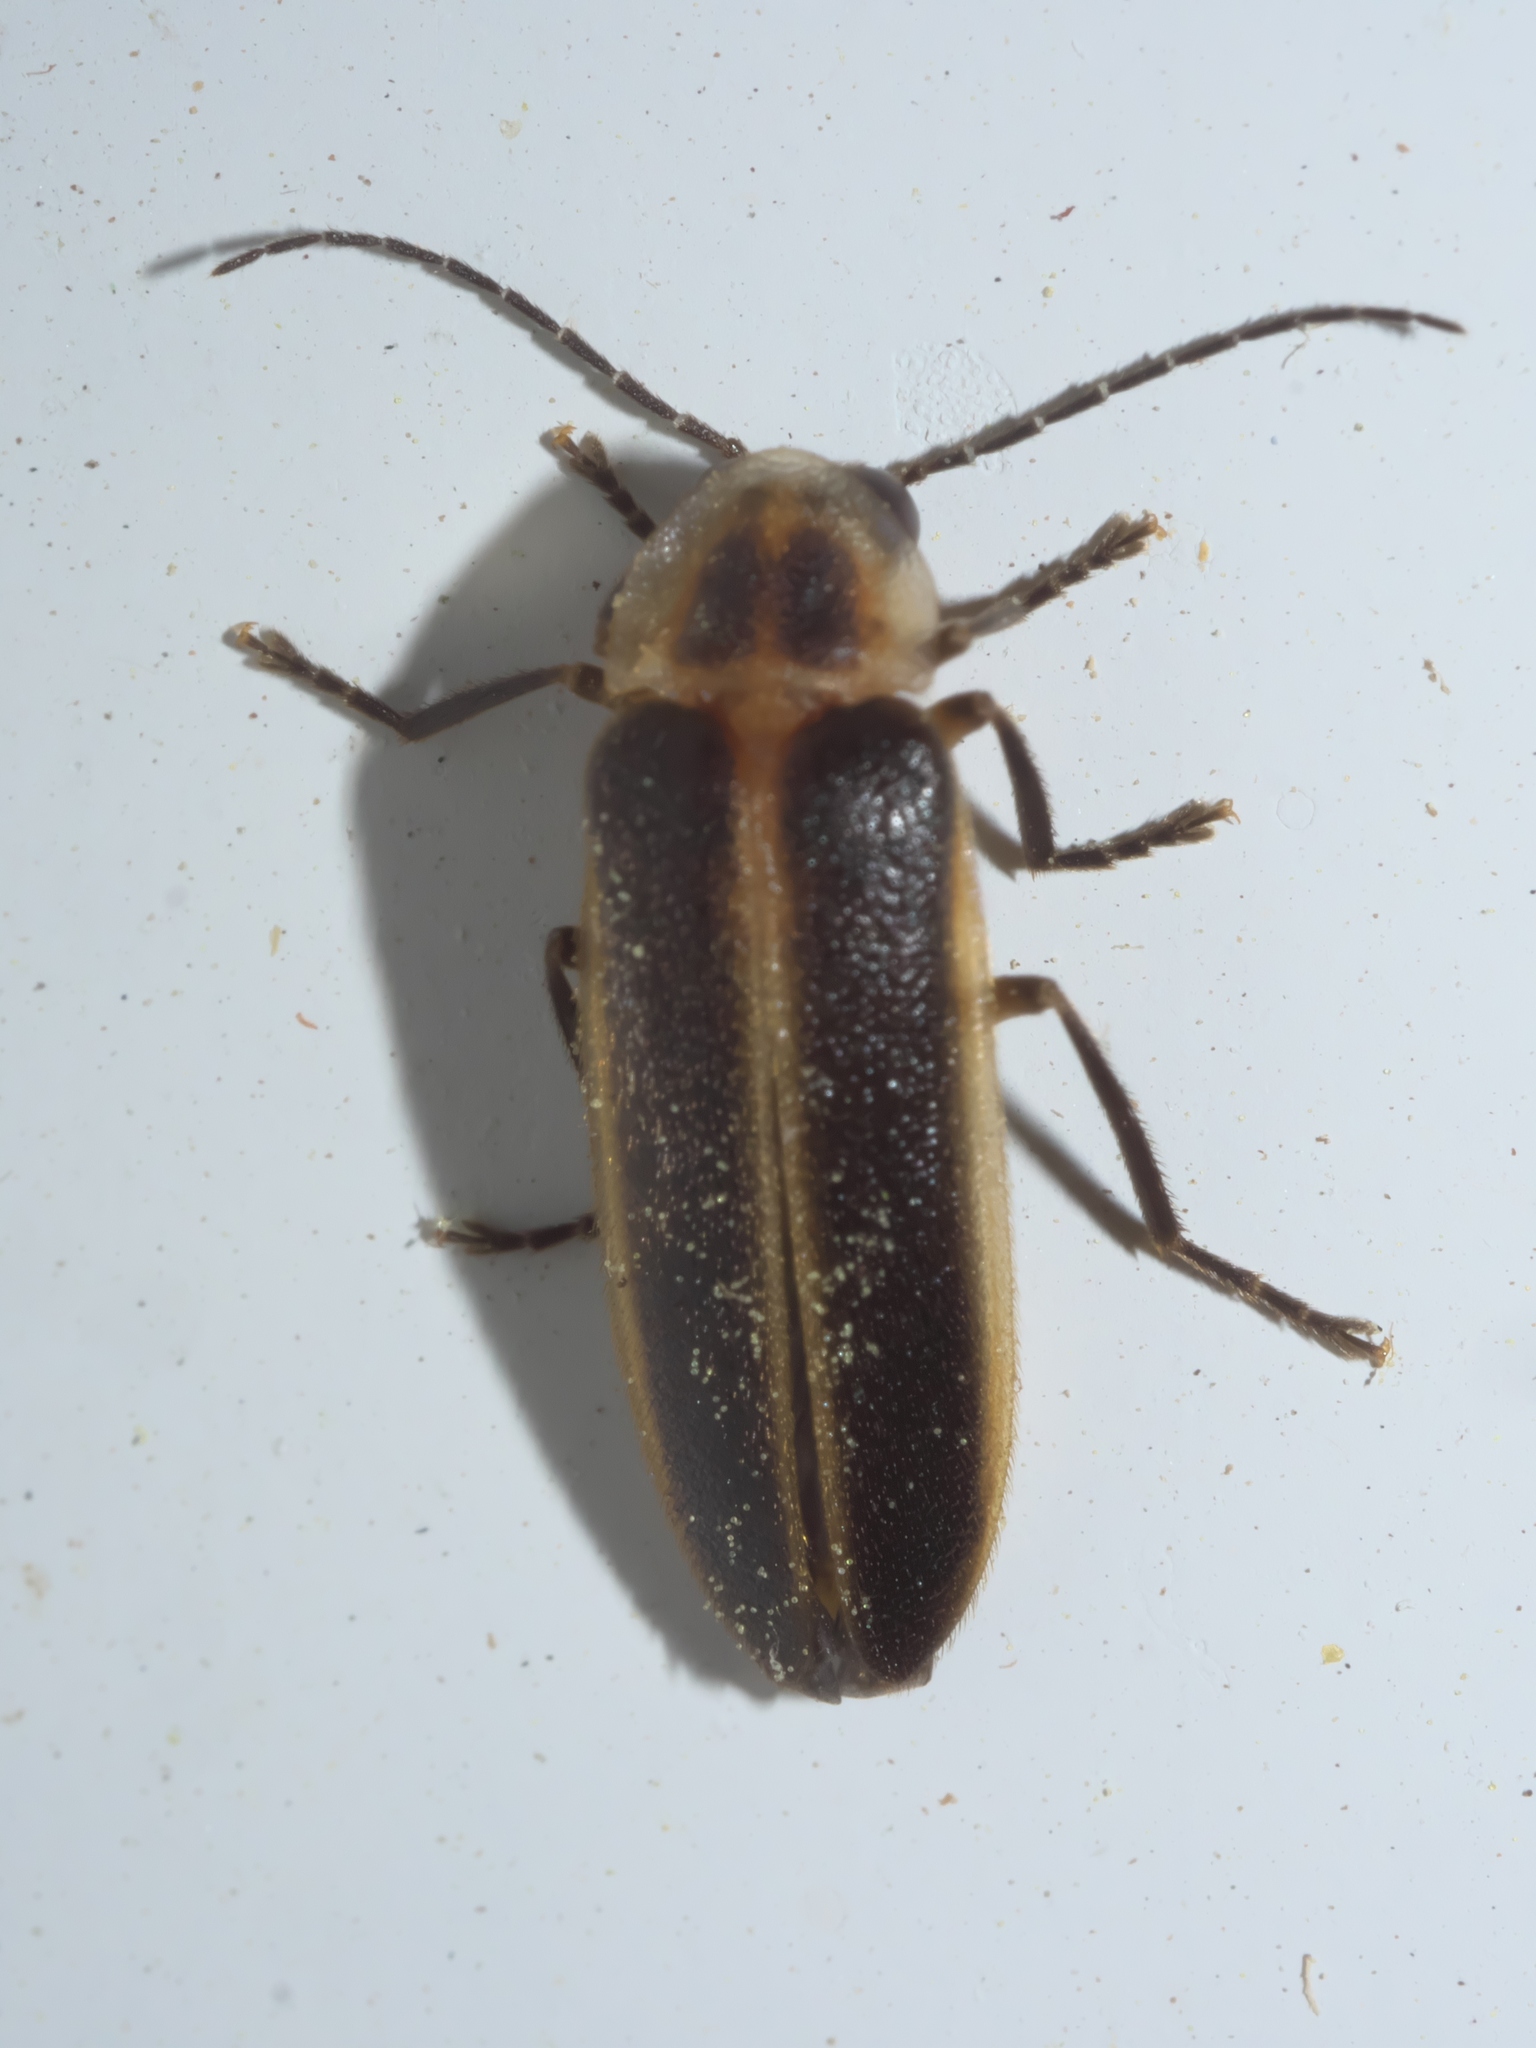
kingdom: Animalia
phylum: Arthropoda
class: Insecta
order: Coleoptera
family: Lampyridae
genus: Photuris
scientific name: Photuris divisa
